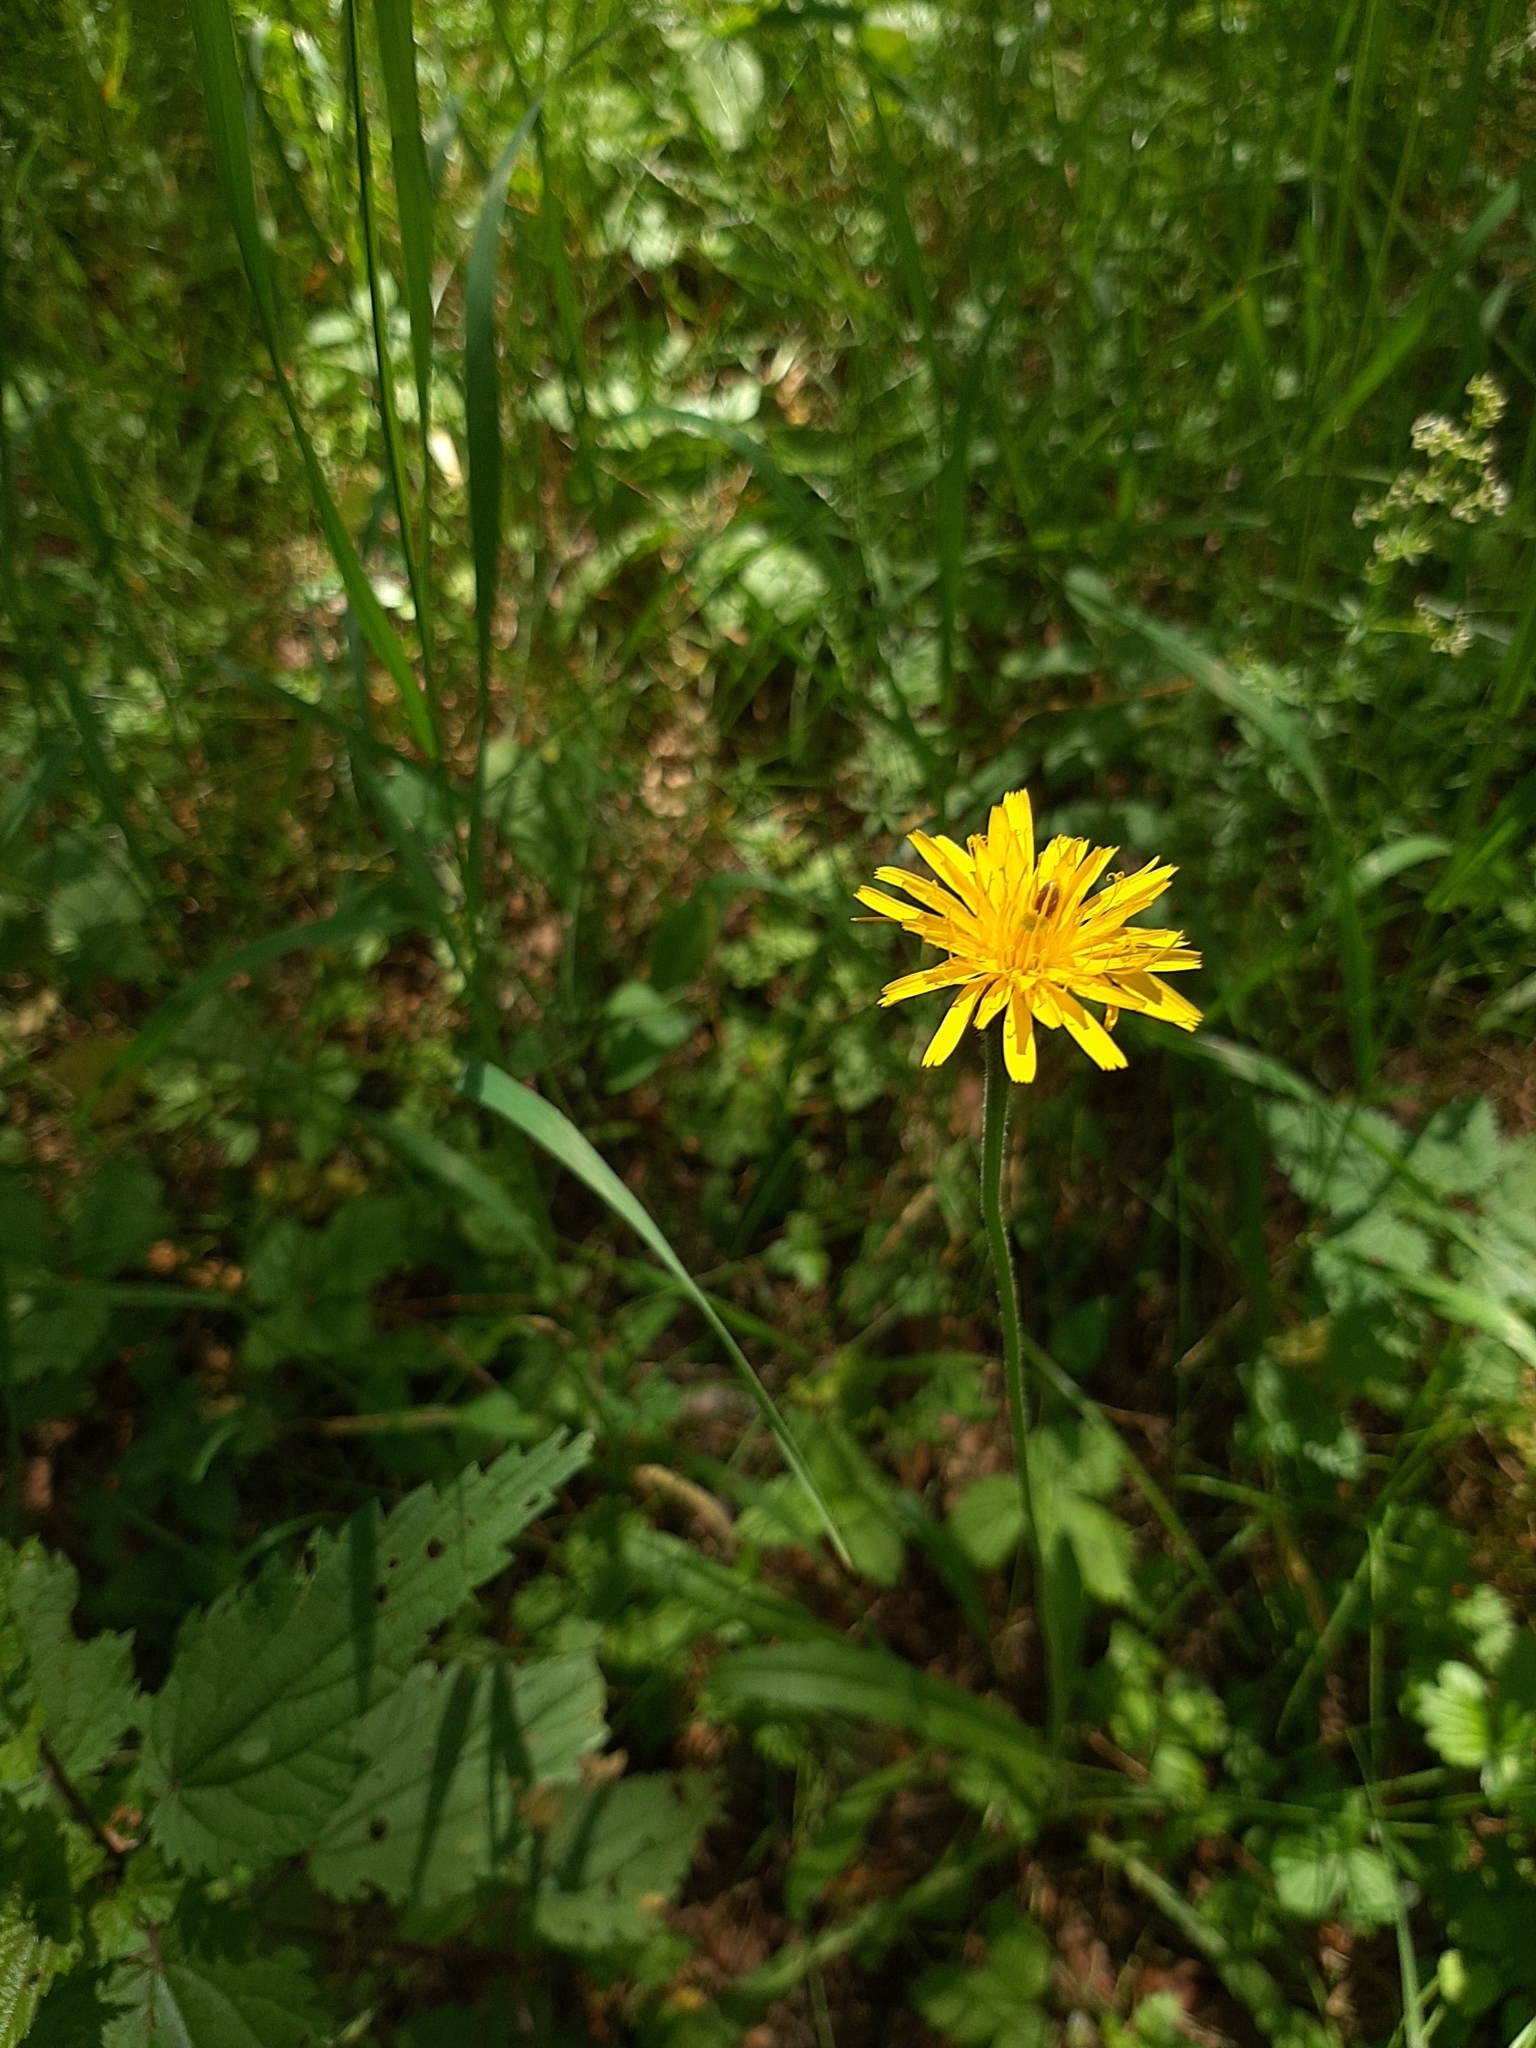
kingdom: Plantae
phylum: Tracheophyta
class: Magnoliopsida
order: Asterales
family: Asteraceae
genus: Leontodon
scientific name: Leontodon hispidus
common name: Rough hawkbit
